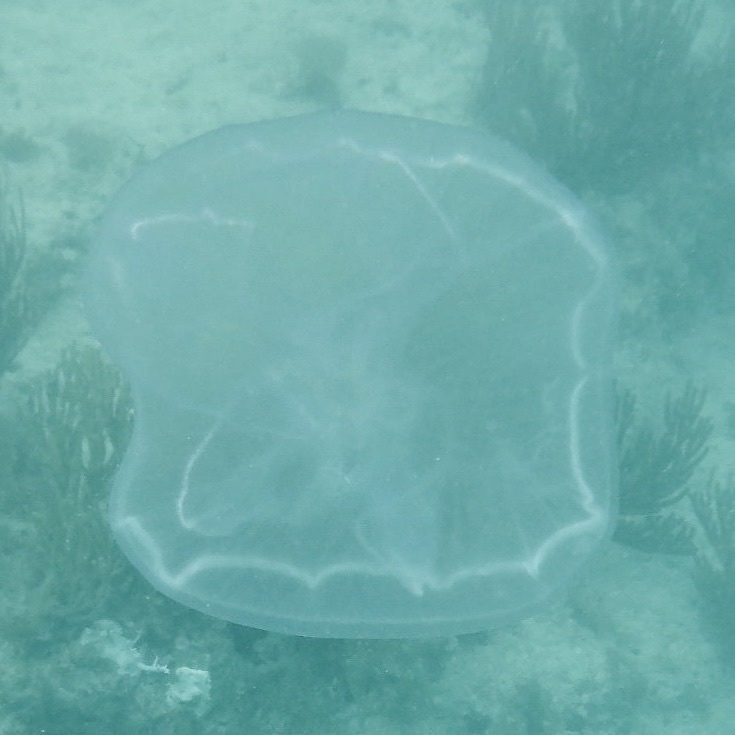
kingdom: Animalia
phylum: Cnidaria
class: Scyphozoa
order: Semaeostomeae
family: Ulmaridae
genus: Aurelia
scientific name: Aurelia marginalis
